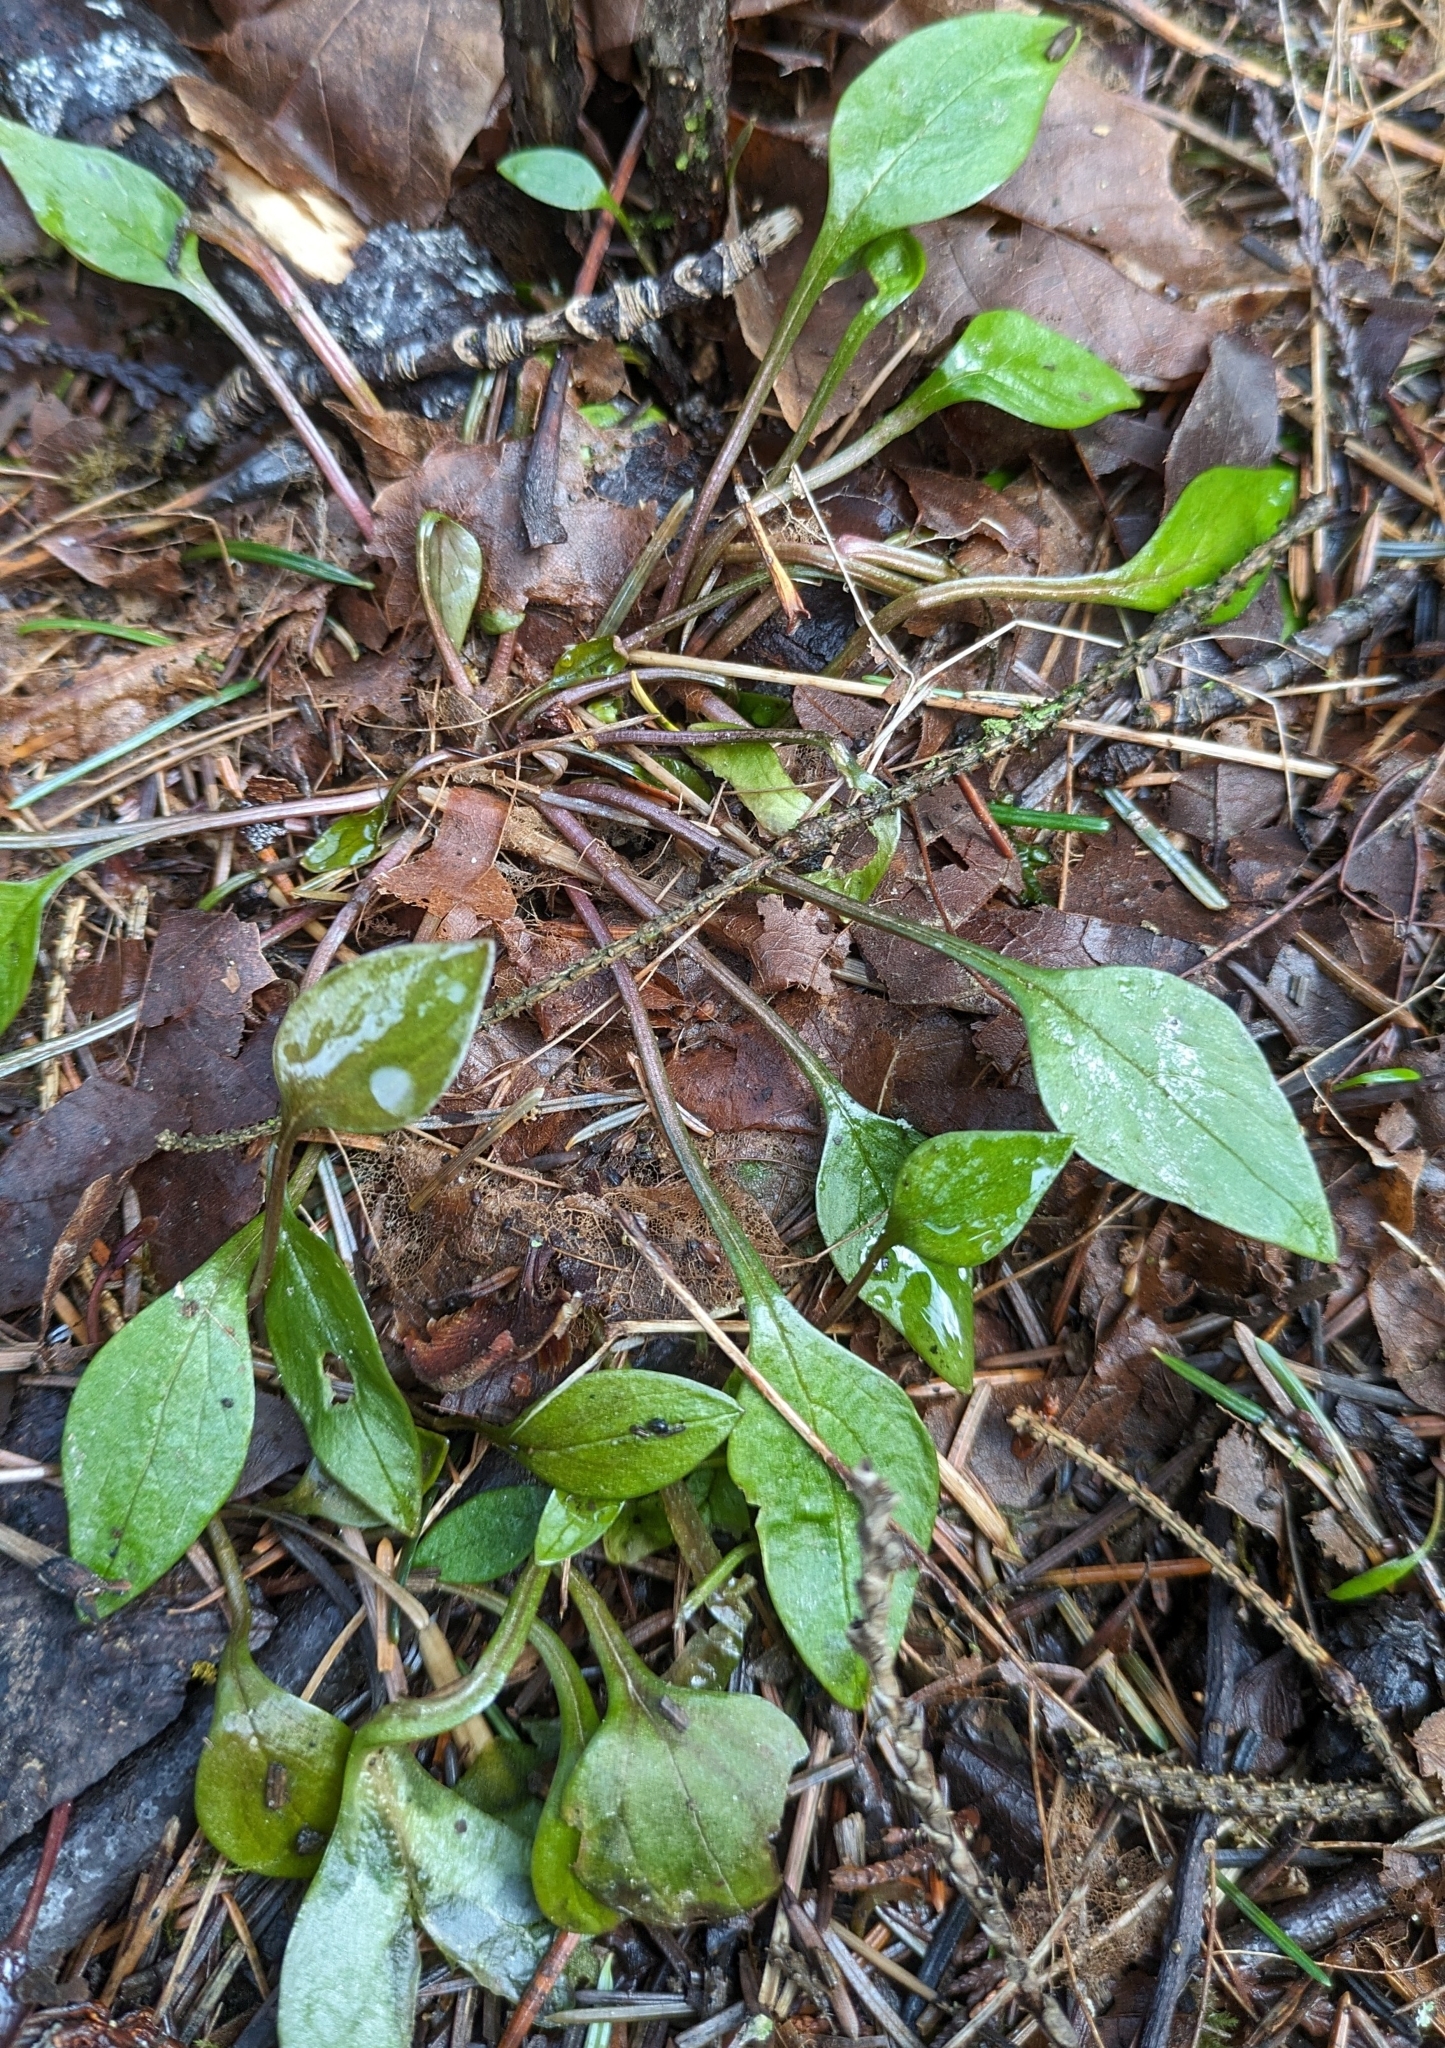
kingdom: Plantae
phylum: Tracheophyta
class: Magnoliopsida
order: Caryophyllales
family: Montiaceae
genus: Claytonia
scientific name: Claytonia sibirica
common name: Pink purslane
